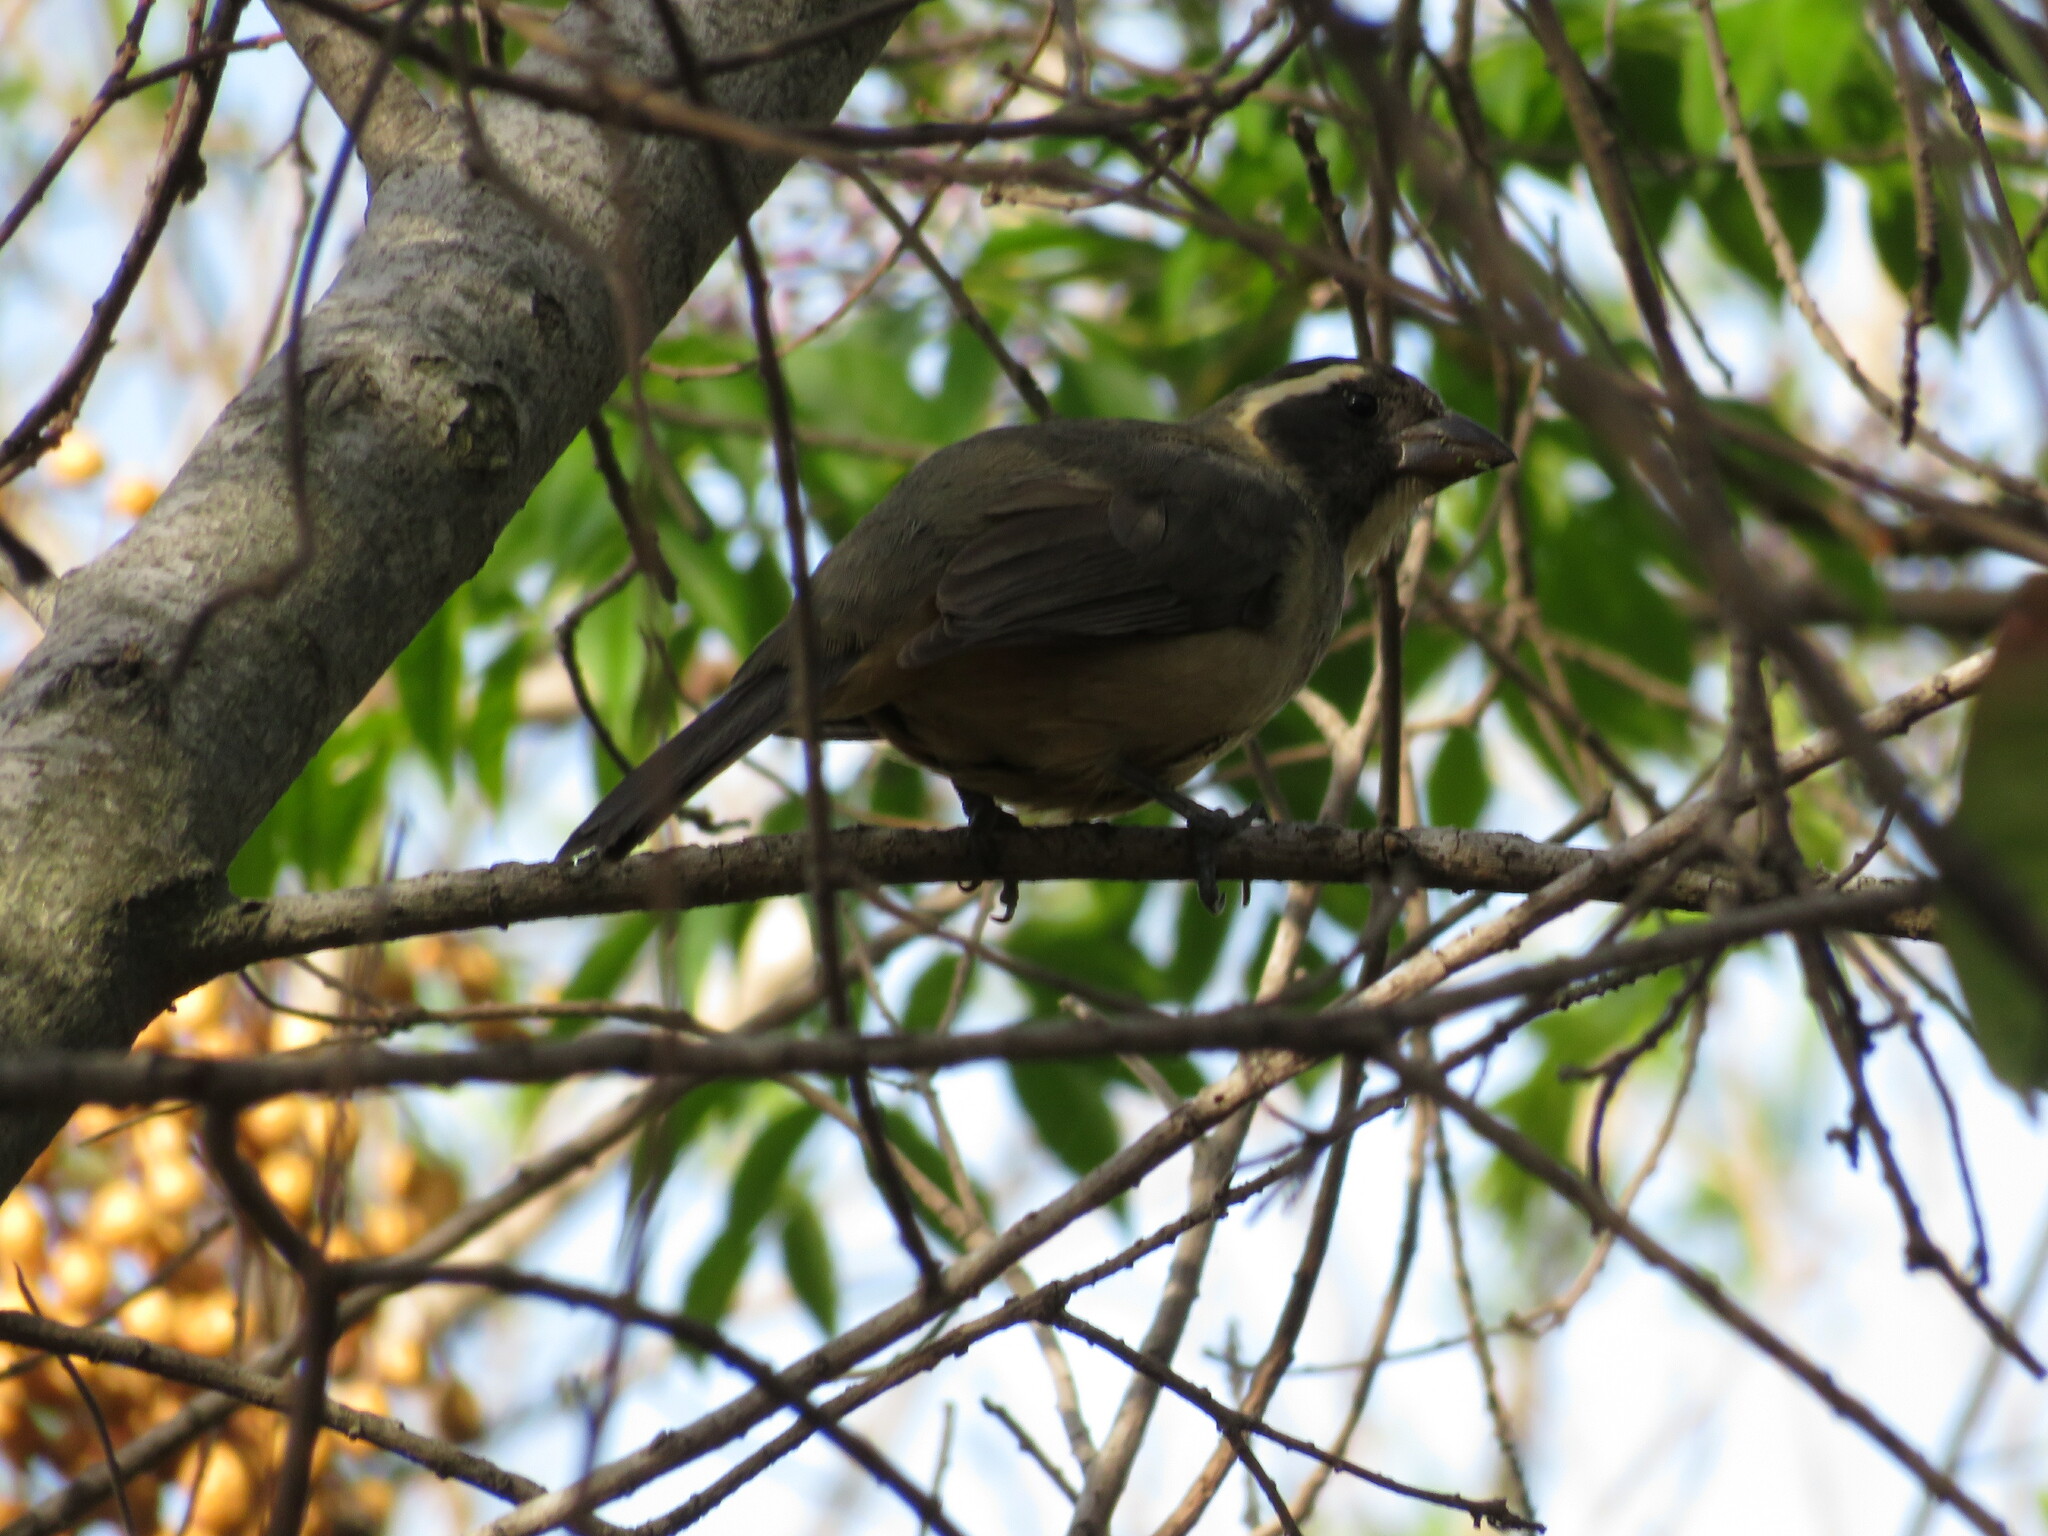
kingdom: Animalia
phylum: Chordata
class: Aves
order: Passeriformes
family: Thraupidae
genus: Saltator
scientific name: Saltator aurantiirostris
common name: Golden-billed saltator
